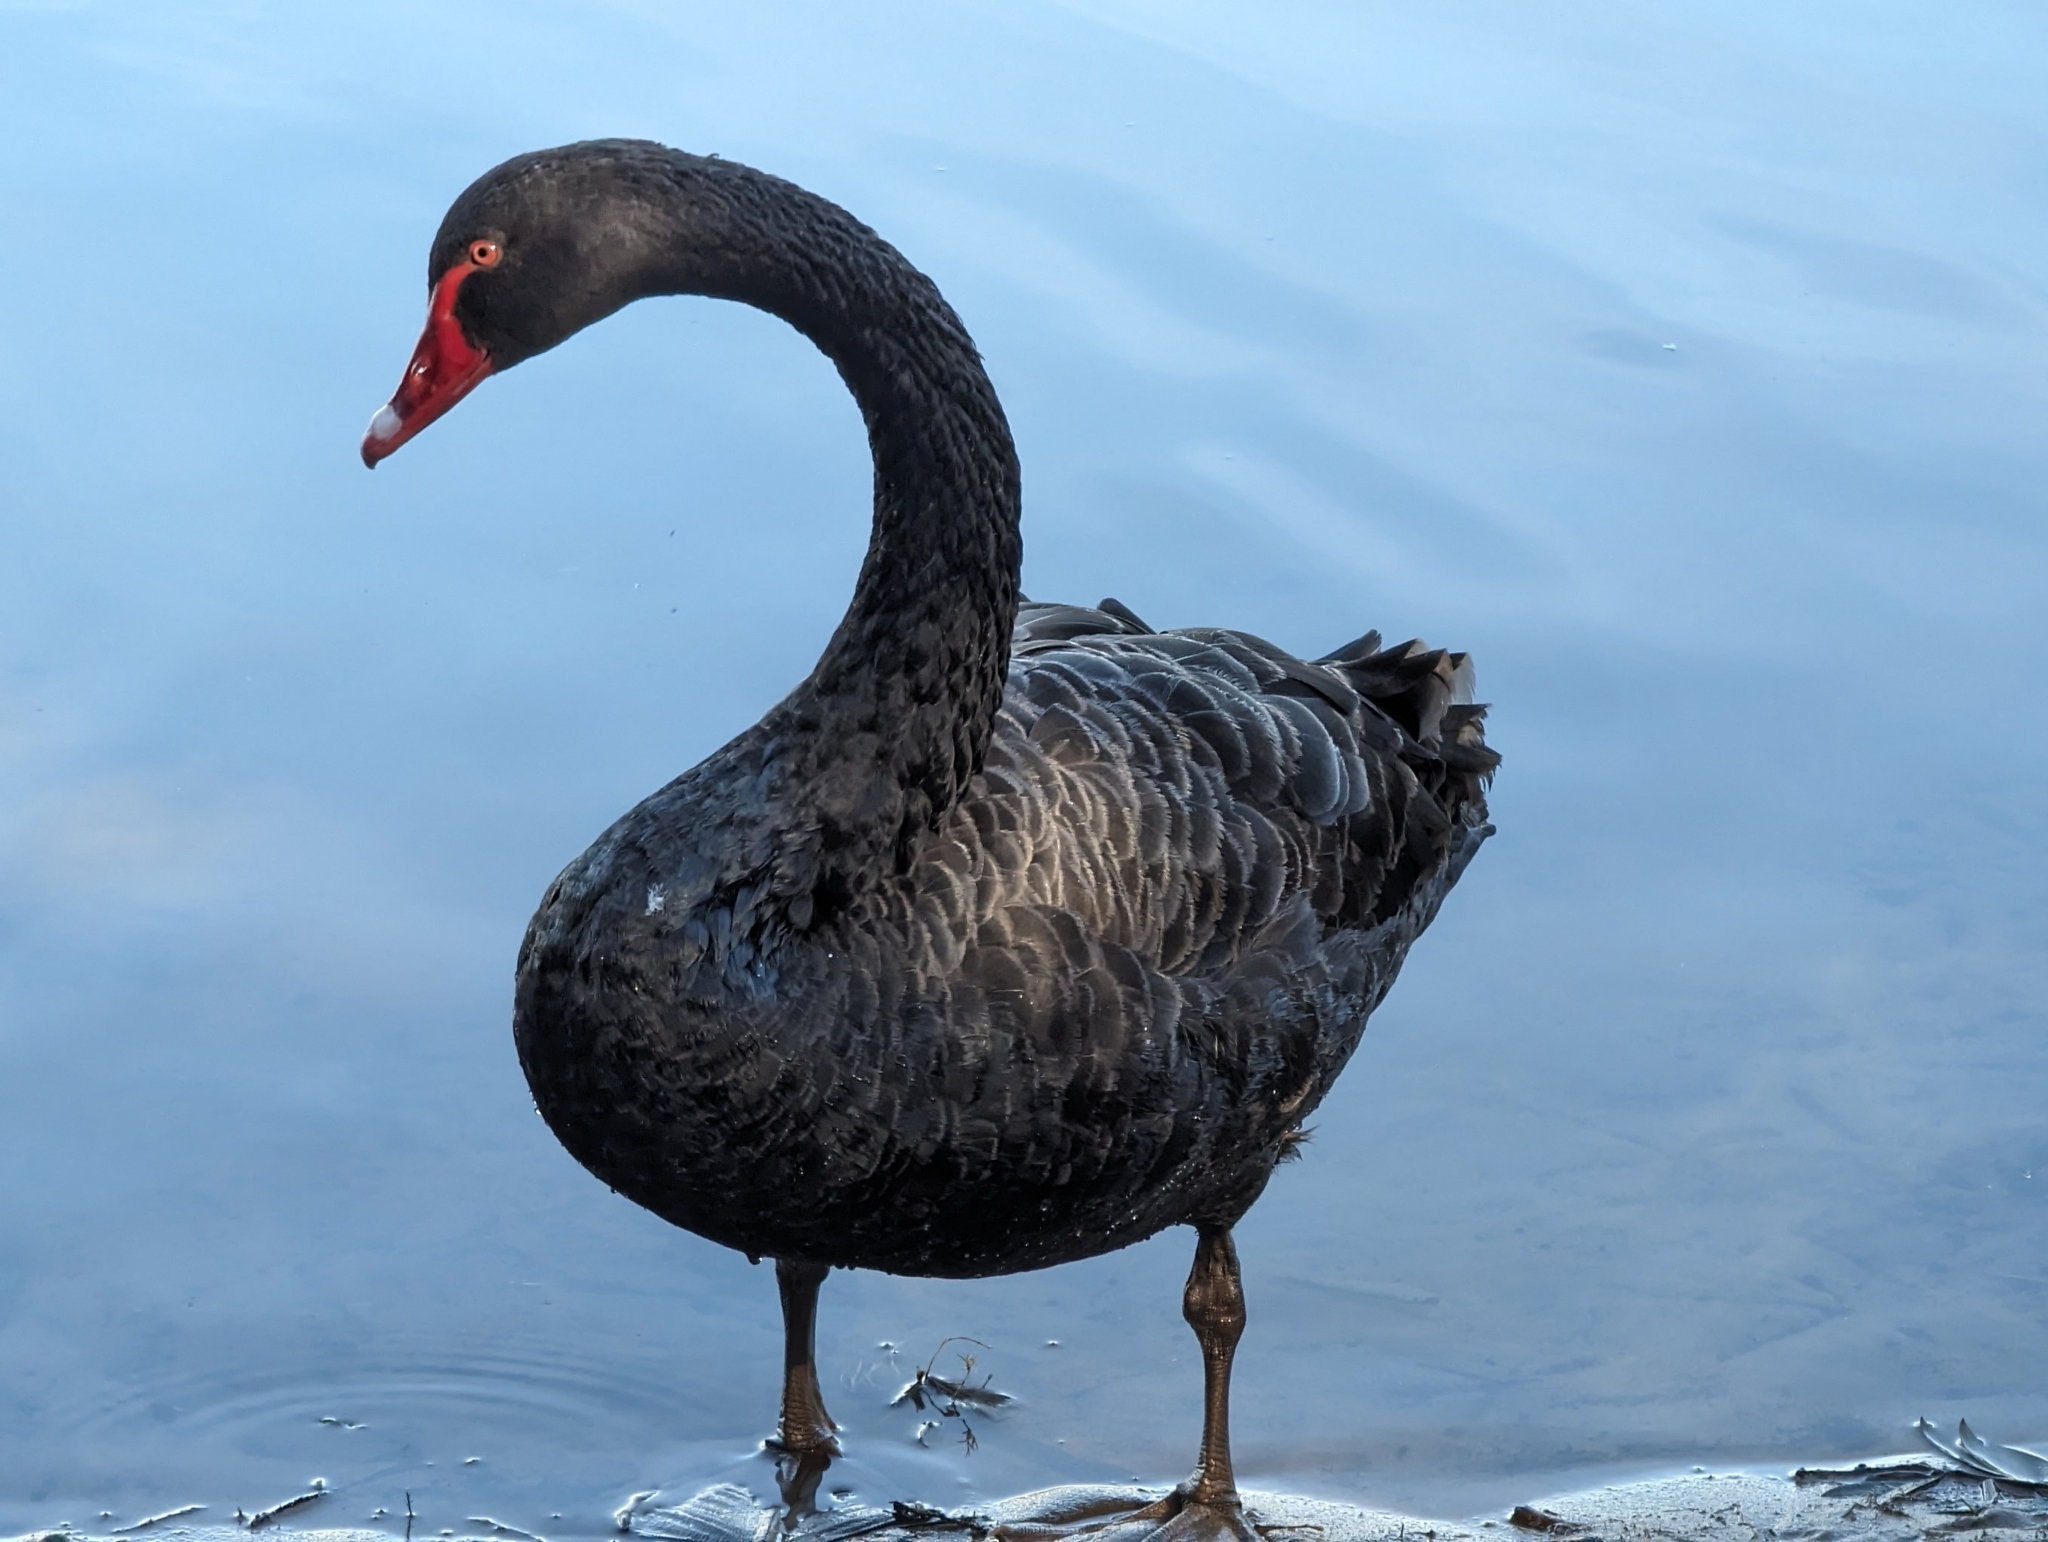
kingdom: Animalia
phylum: Chordata
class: Aves
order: Anseriformes
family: Anatidae
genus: Cygnus
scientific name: Cygnus atratus
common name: Black swan
